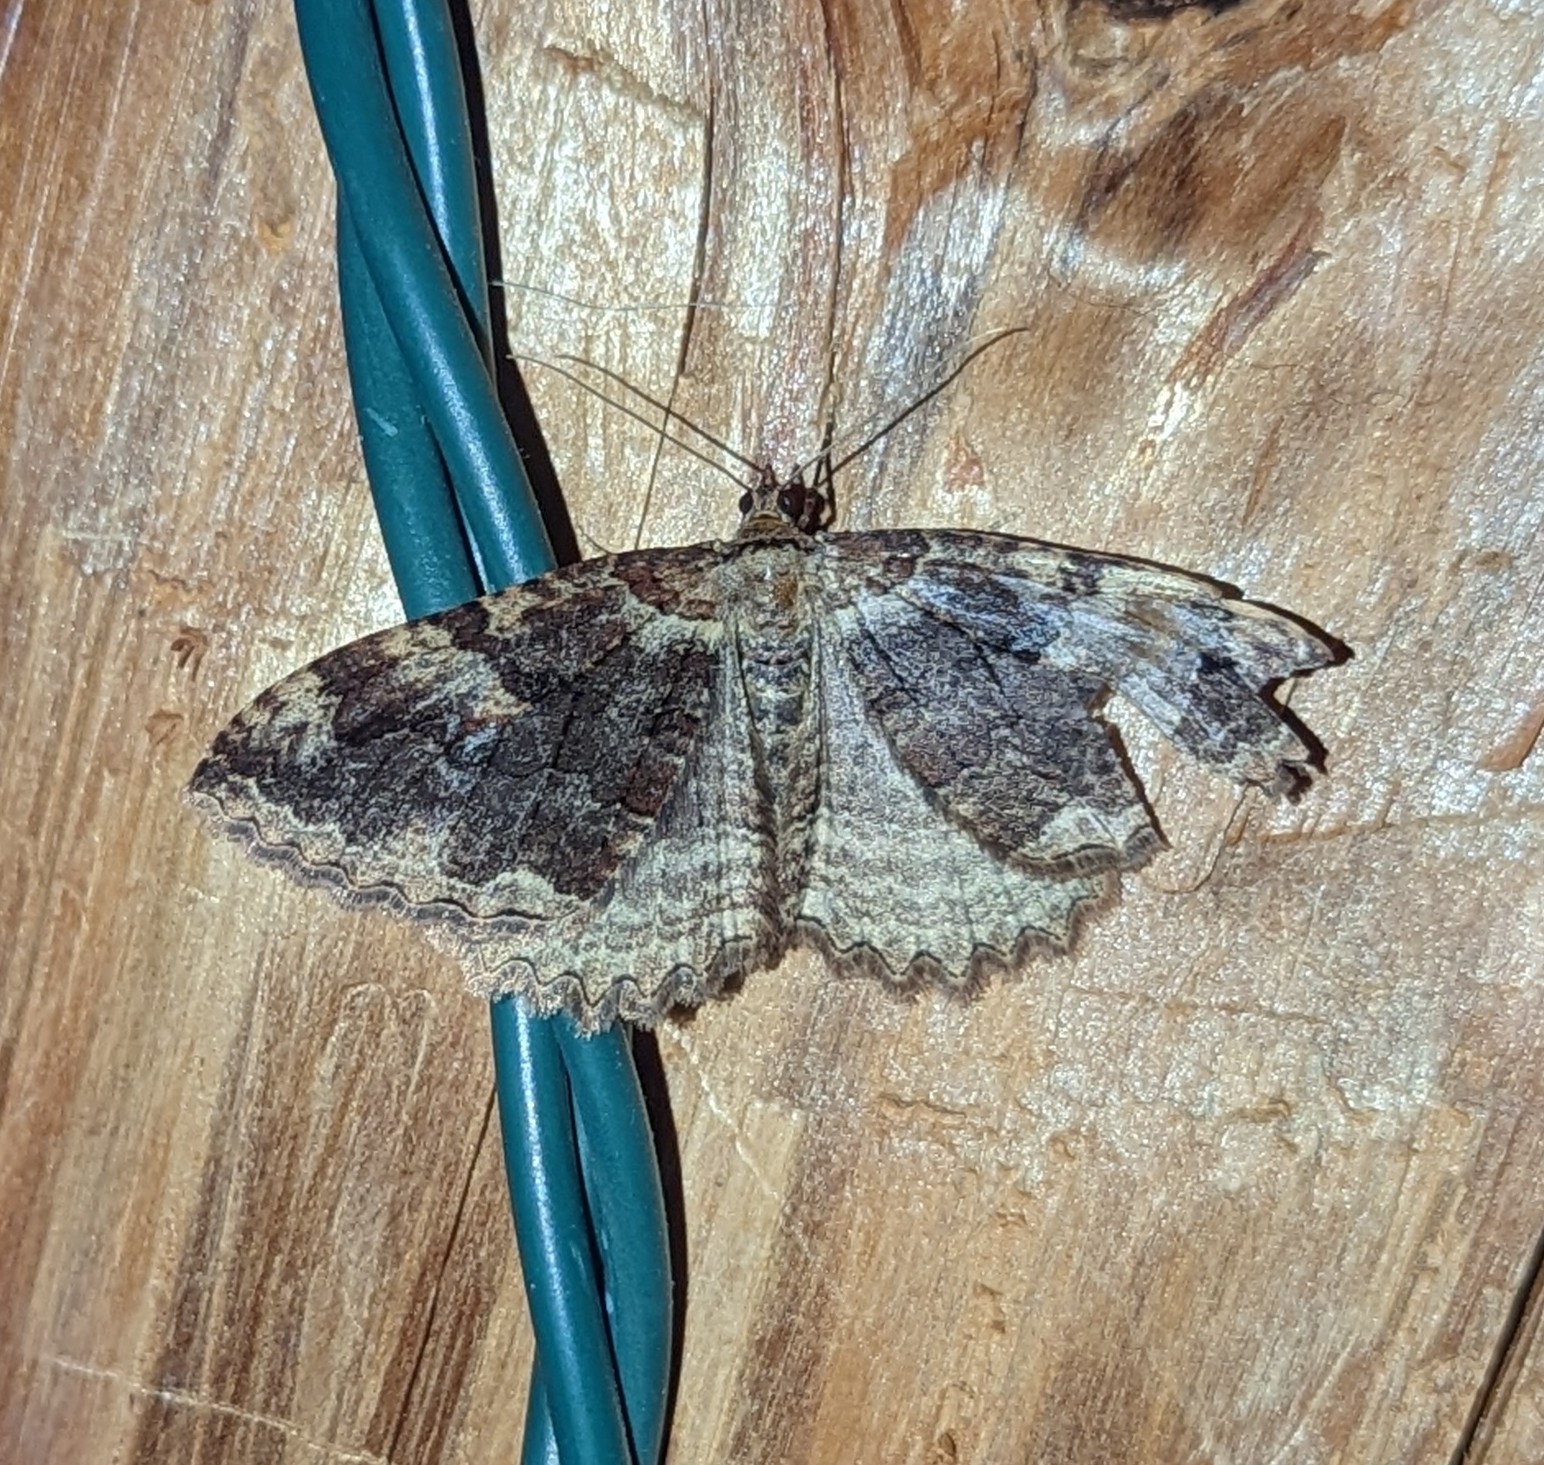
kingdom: Animalia
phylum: Arthropoda
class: Insecta
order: Lepidoptera
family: Geometridae
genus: Triphosa
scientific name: Triphosa haesitata
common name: Tissue moth
